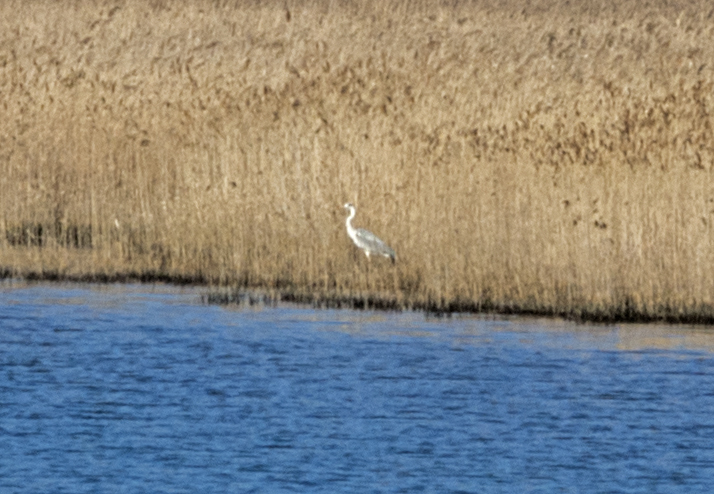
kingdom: Animalia
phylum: Chordata
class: Aves
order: Pelecaniformes
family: Ardeidae
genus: Ardea
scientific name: Ardea cinerea
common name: Grey heron
